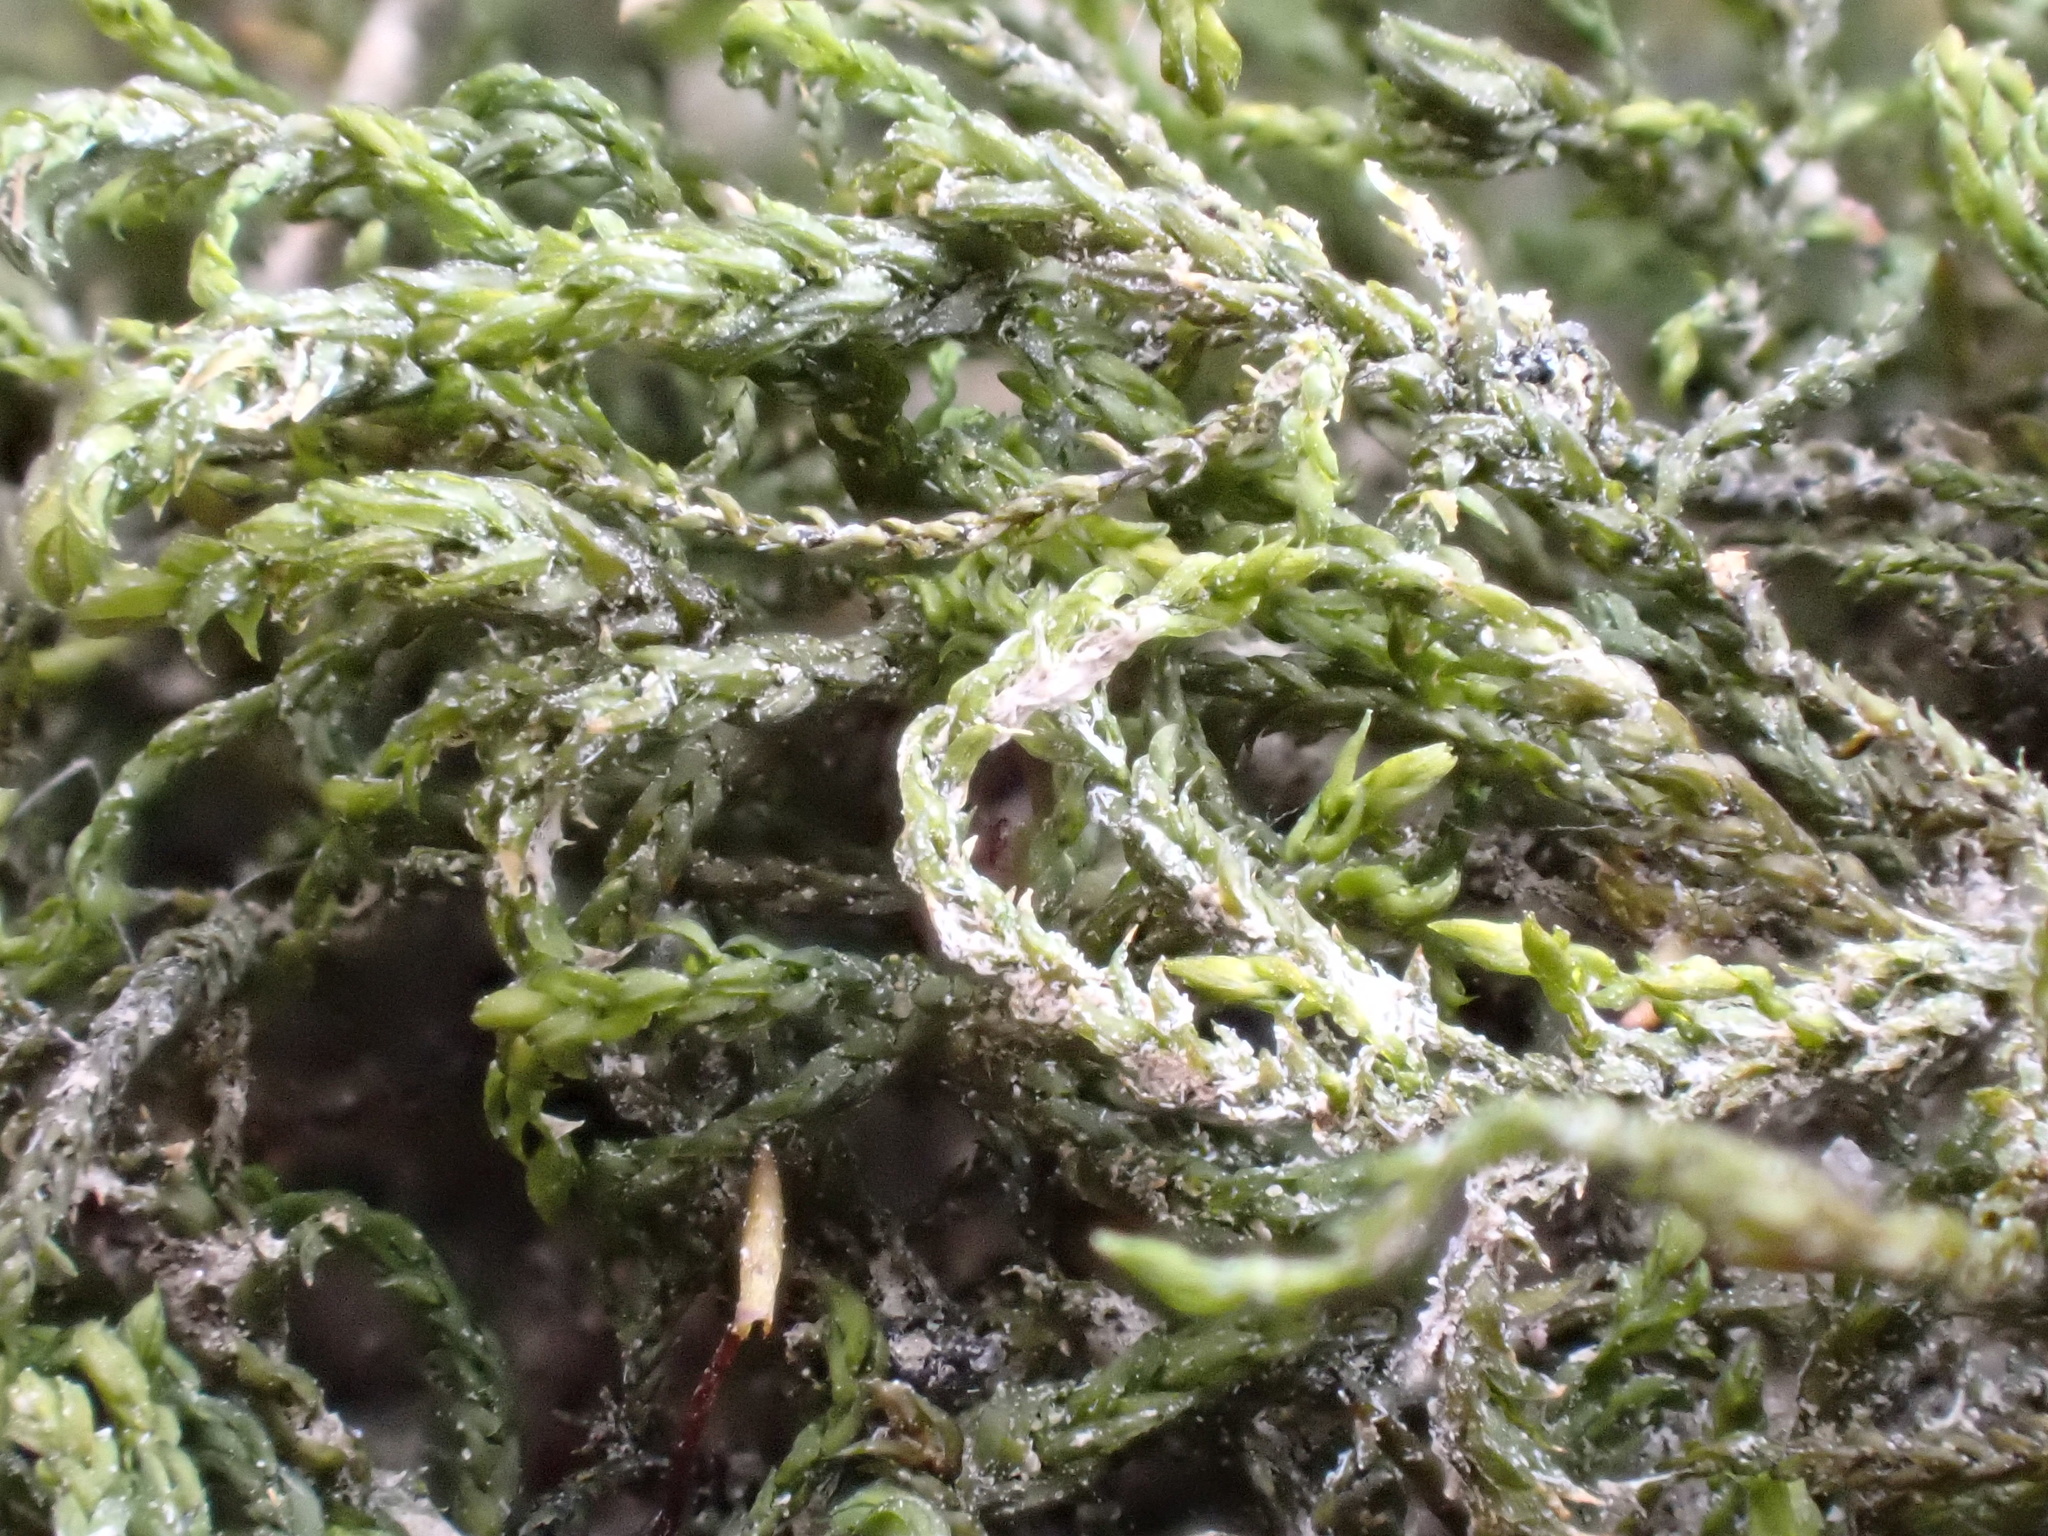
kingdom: Plantae
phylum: Bryophyta
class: Bryopsida
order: Pottiales
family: Pottiaceae
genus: Cinclidotus
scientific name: Cinclidotus fontinaloides
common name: Smaller lattice-moss
